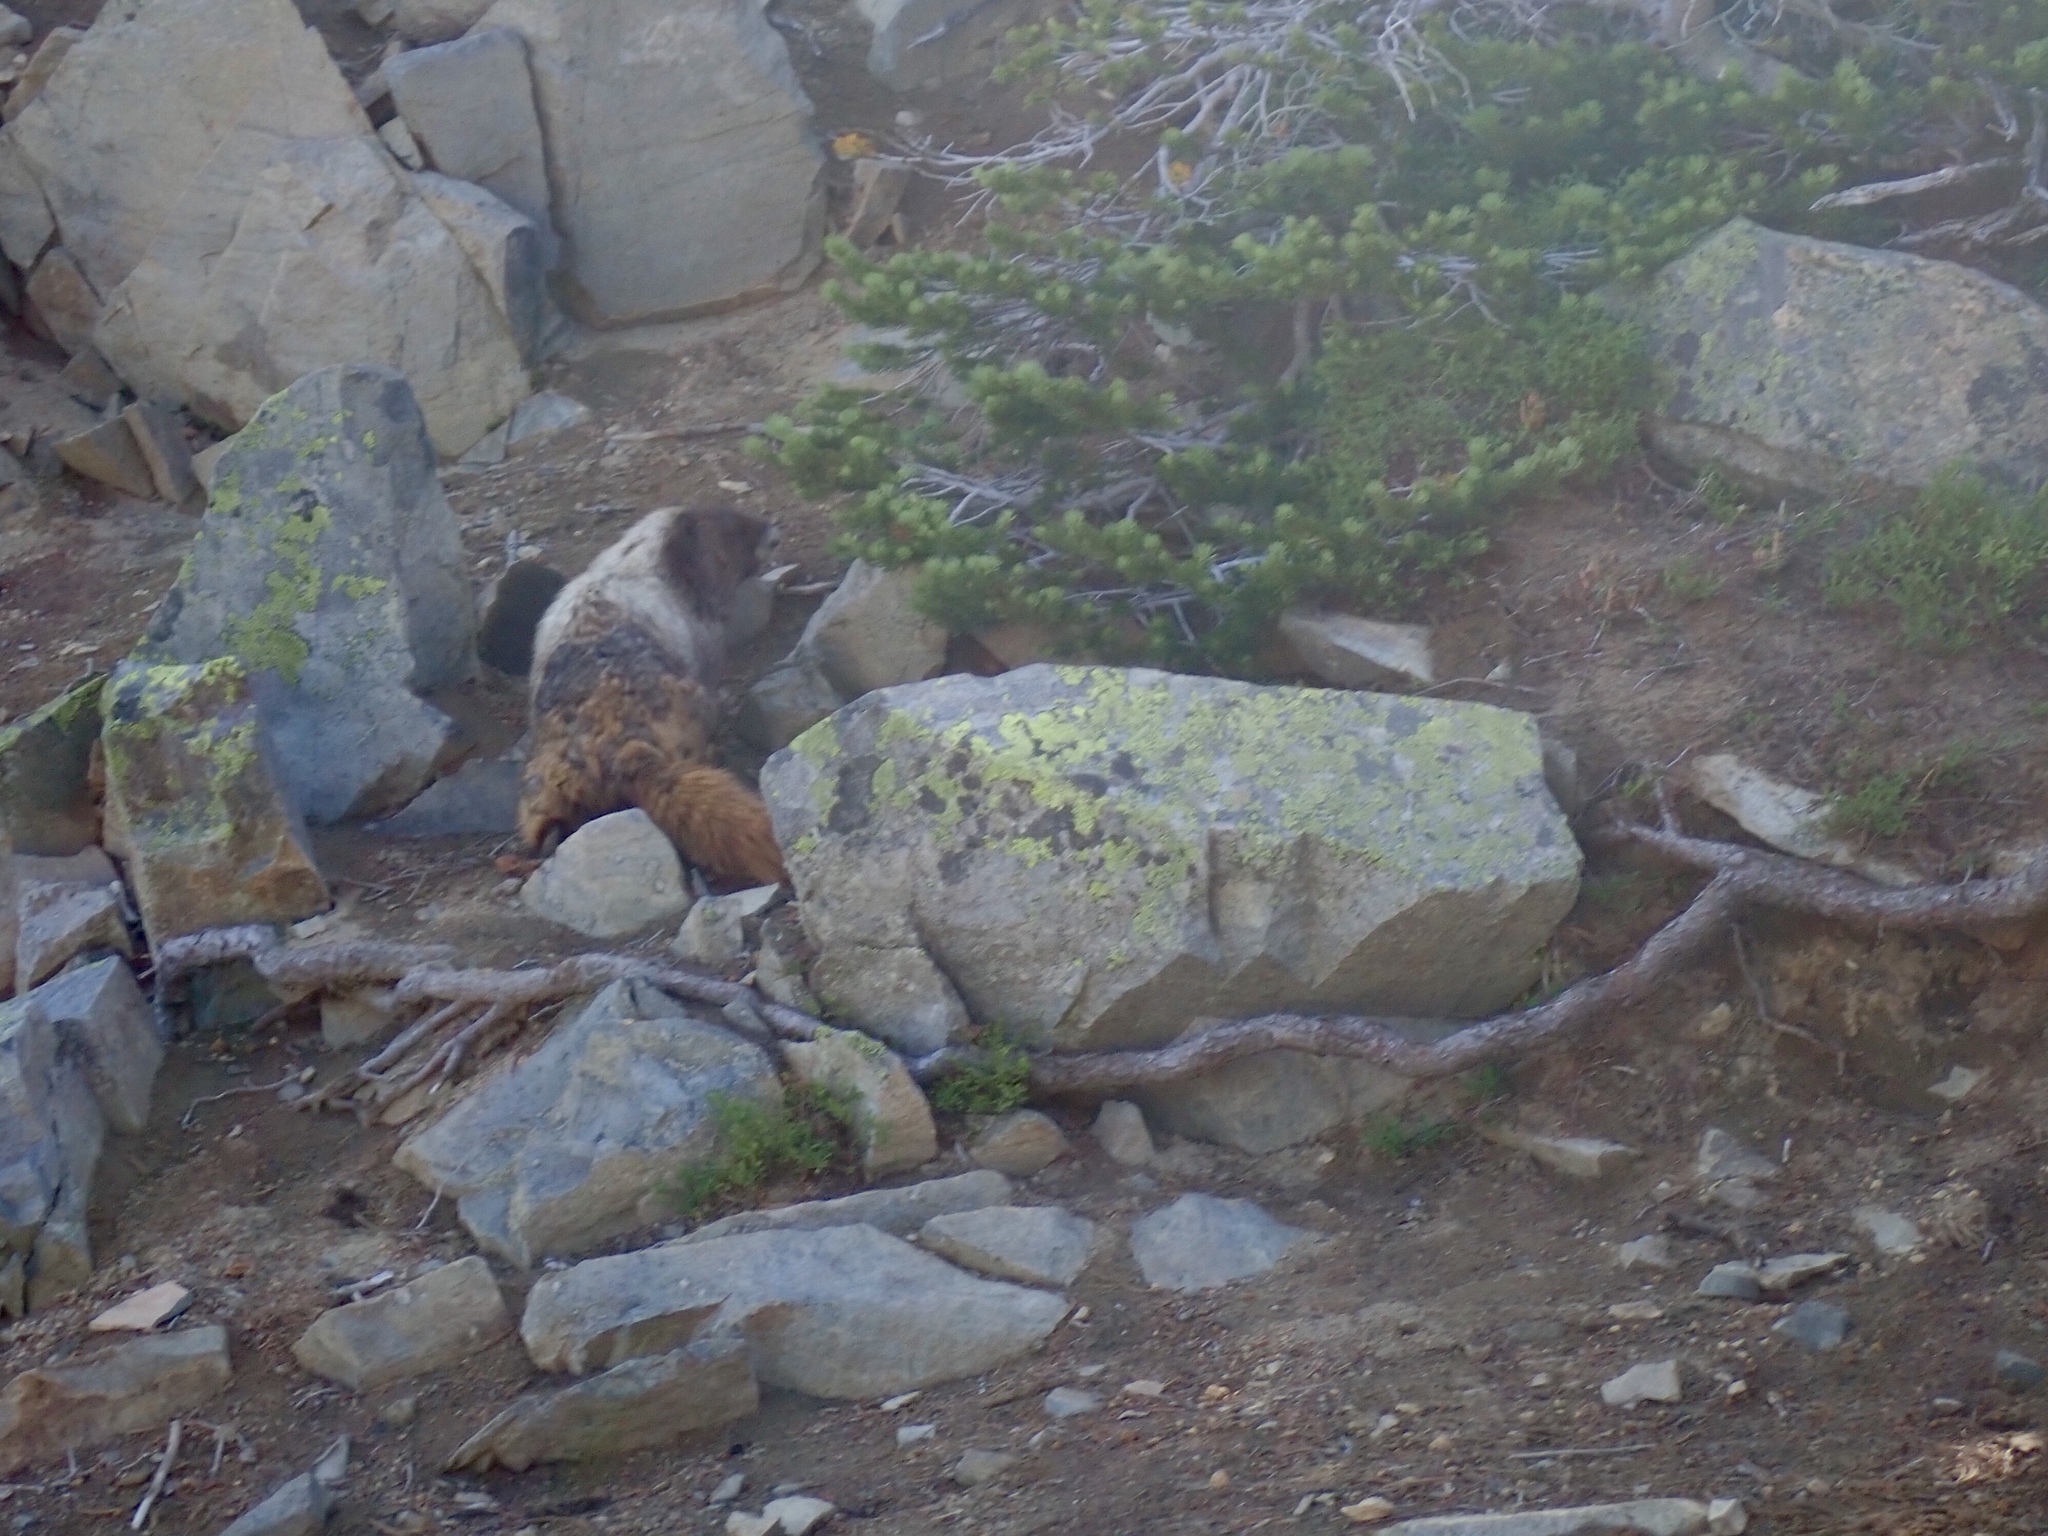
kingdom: Animalia
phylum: Chordata
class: Mammalia
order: Rodentia
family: Sciuridae
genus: Marmota
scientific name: Marmota caligata
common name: Hoary marmot
